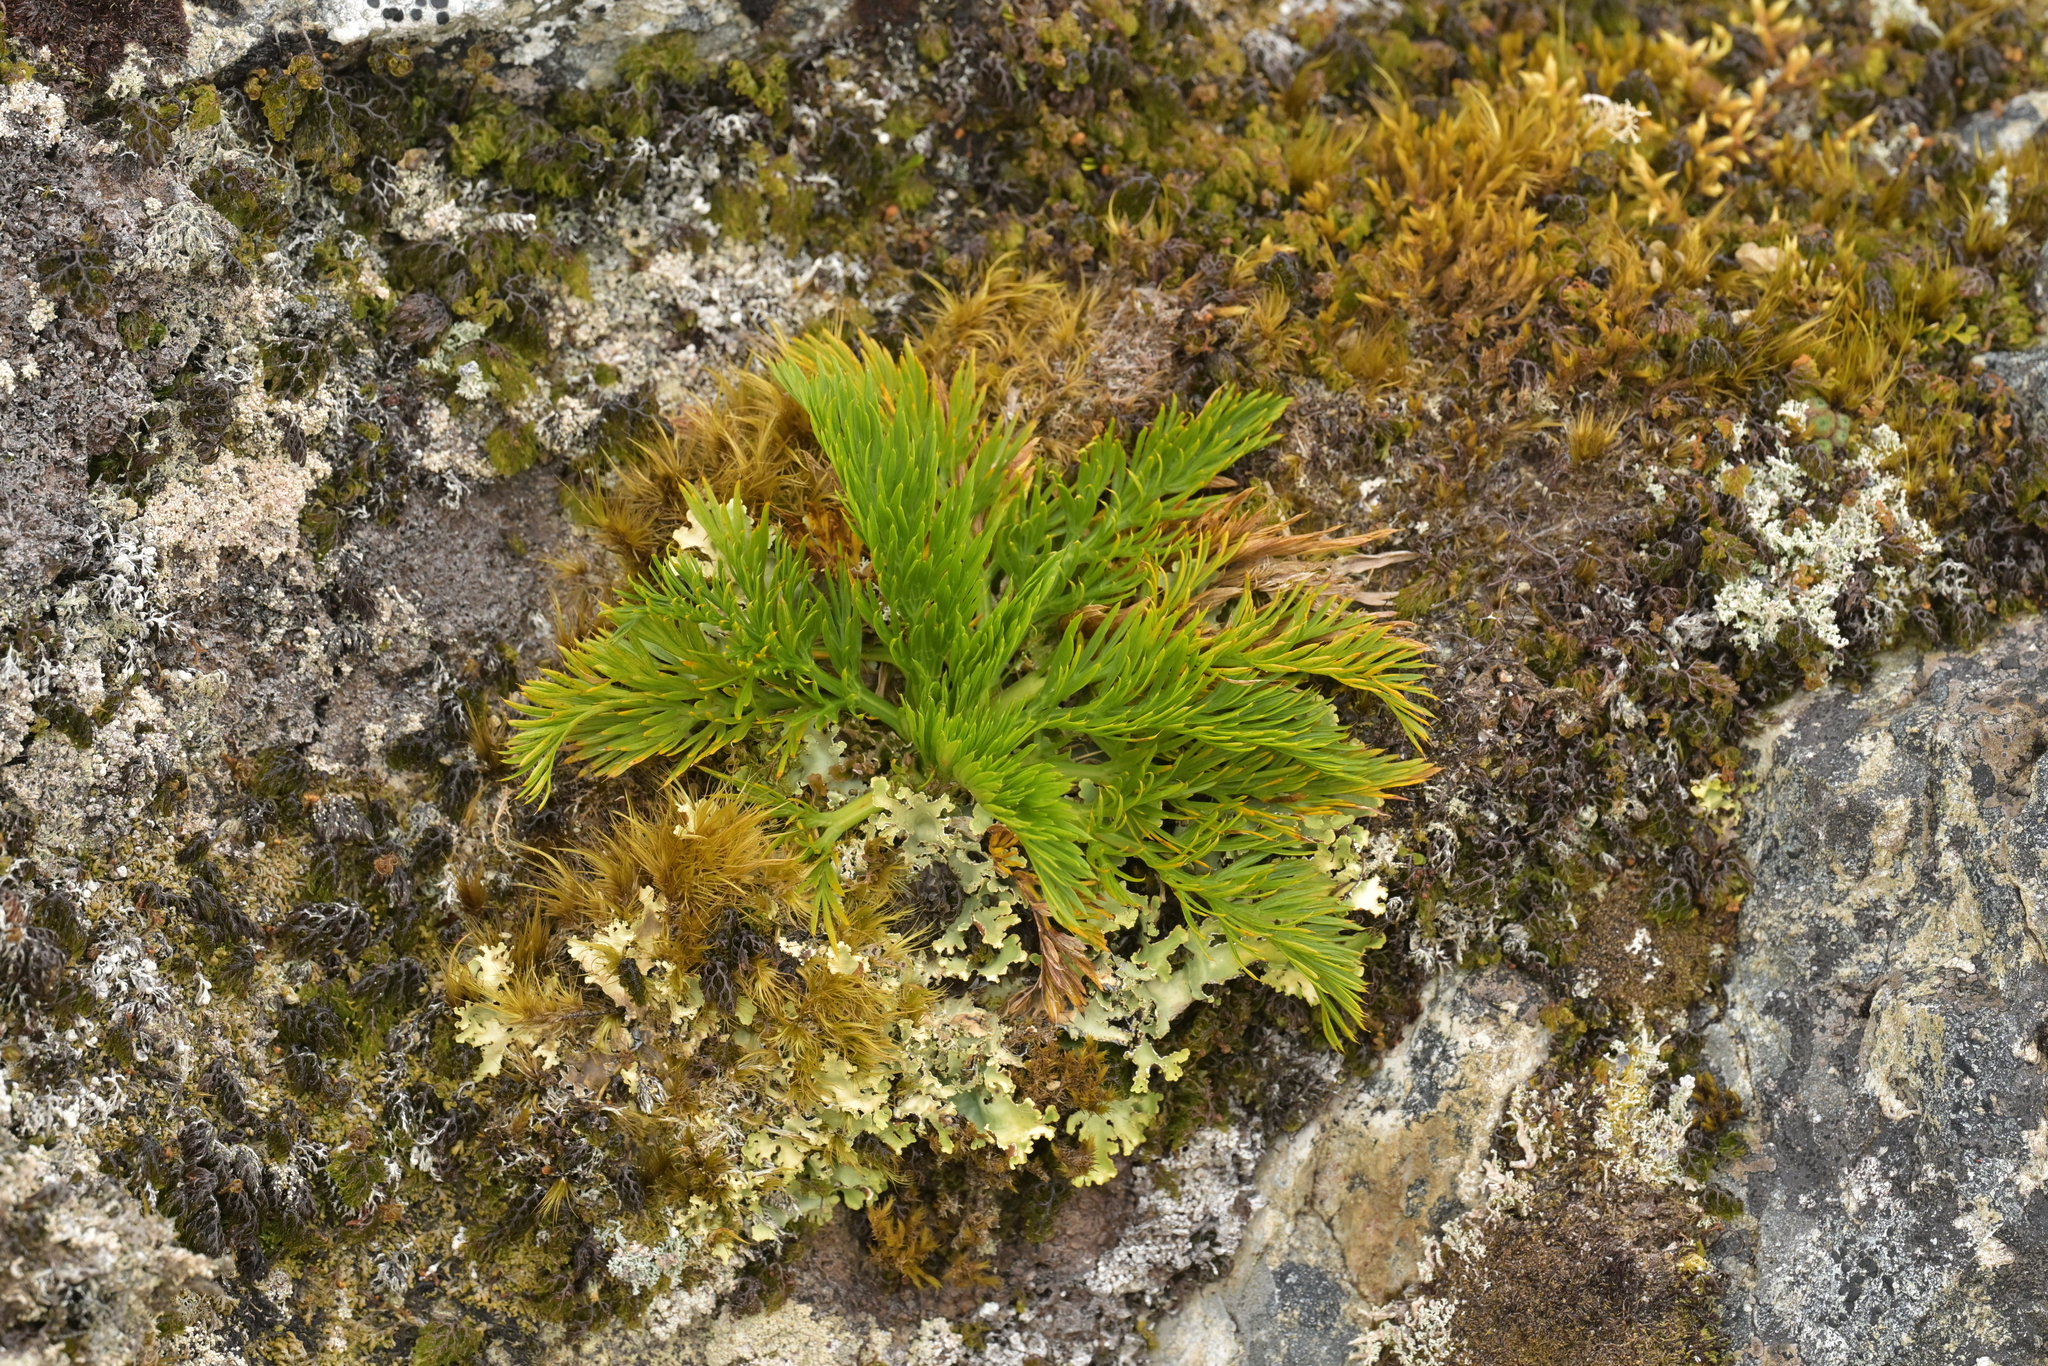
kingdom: Plantae
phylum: Tracheophyta
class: Magnoliopsida
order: Apiales
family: Apiaceae
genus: Aciphylla
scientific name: Aciphylla dissecta
